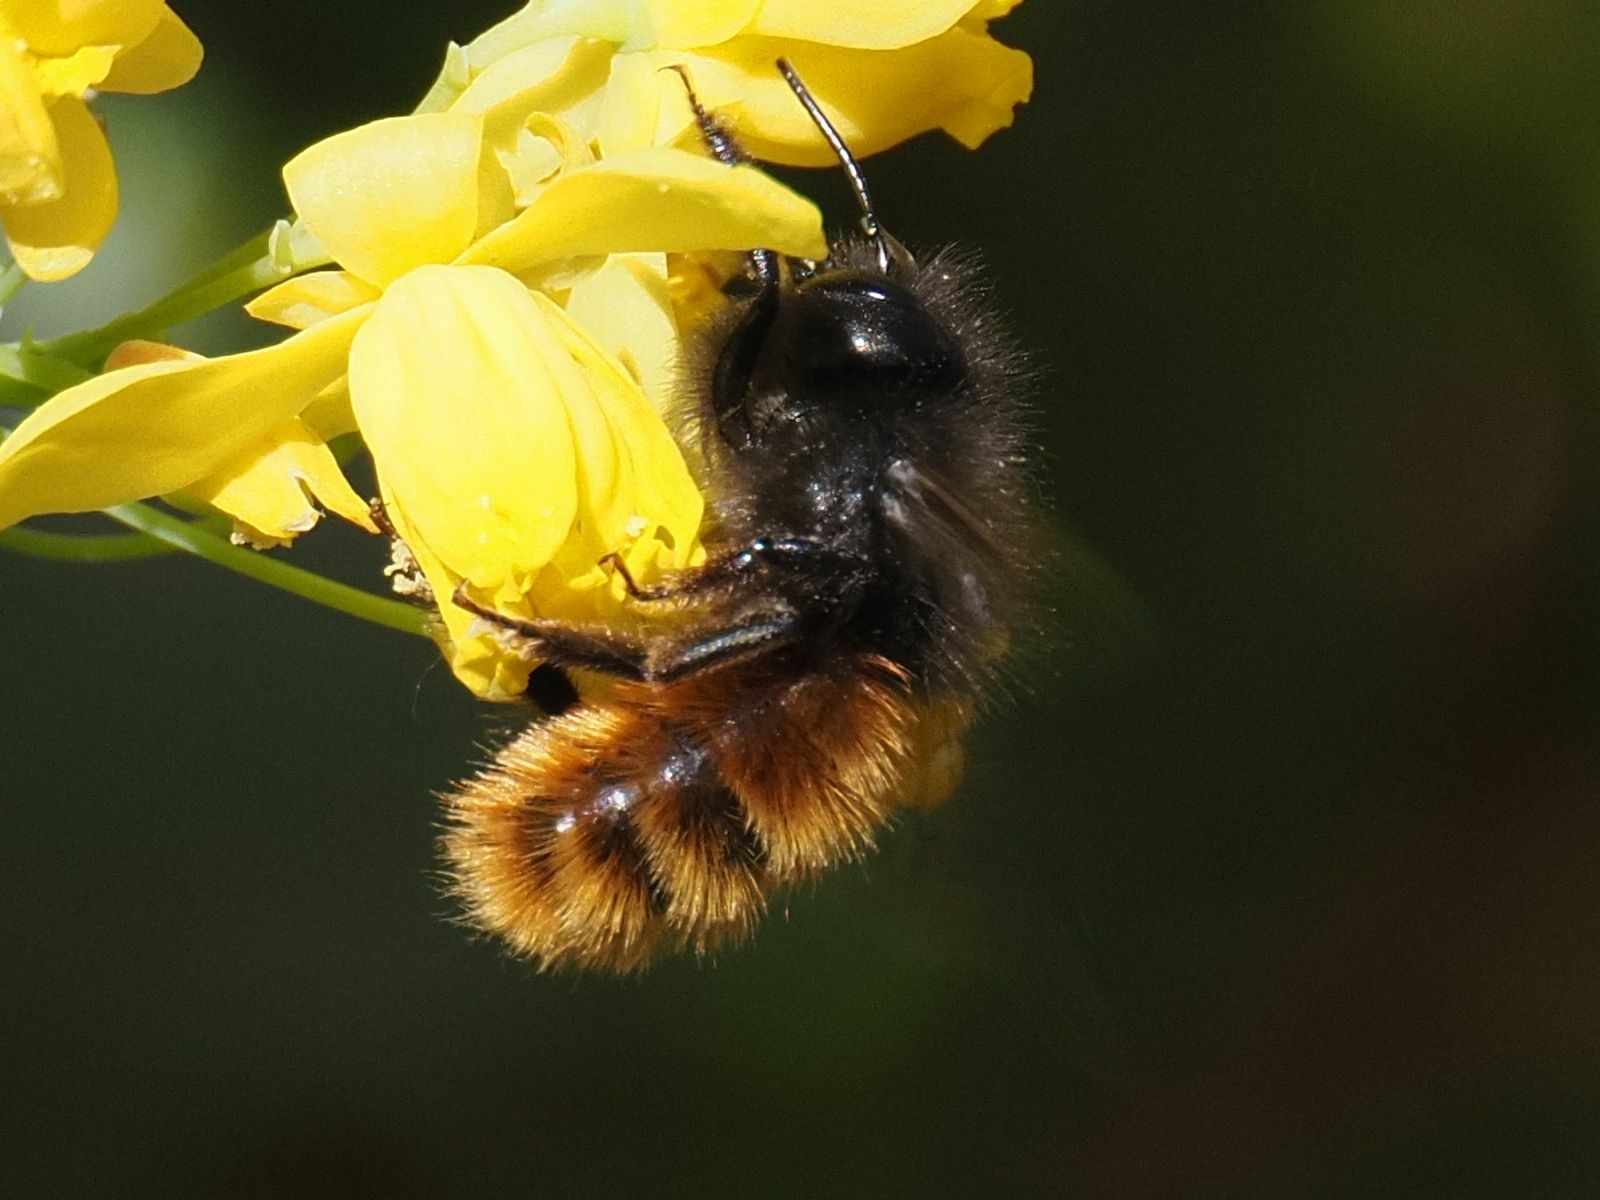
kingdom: Animalia
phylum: Arthropoda
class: Insecta
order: Hymenoptera
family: Megachilidae
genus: Osmia
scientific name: Osmia cornuta
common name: Mason bee
